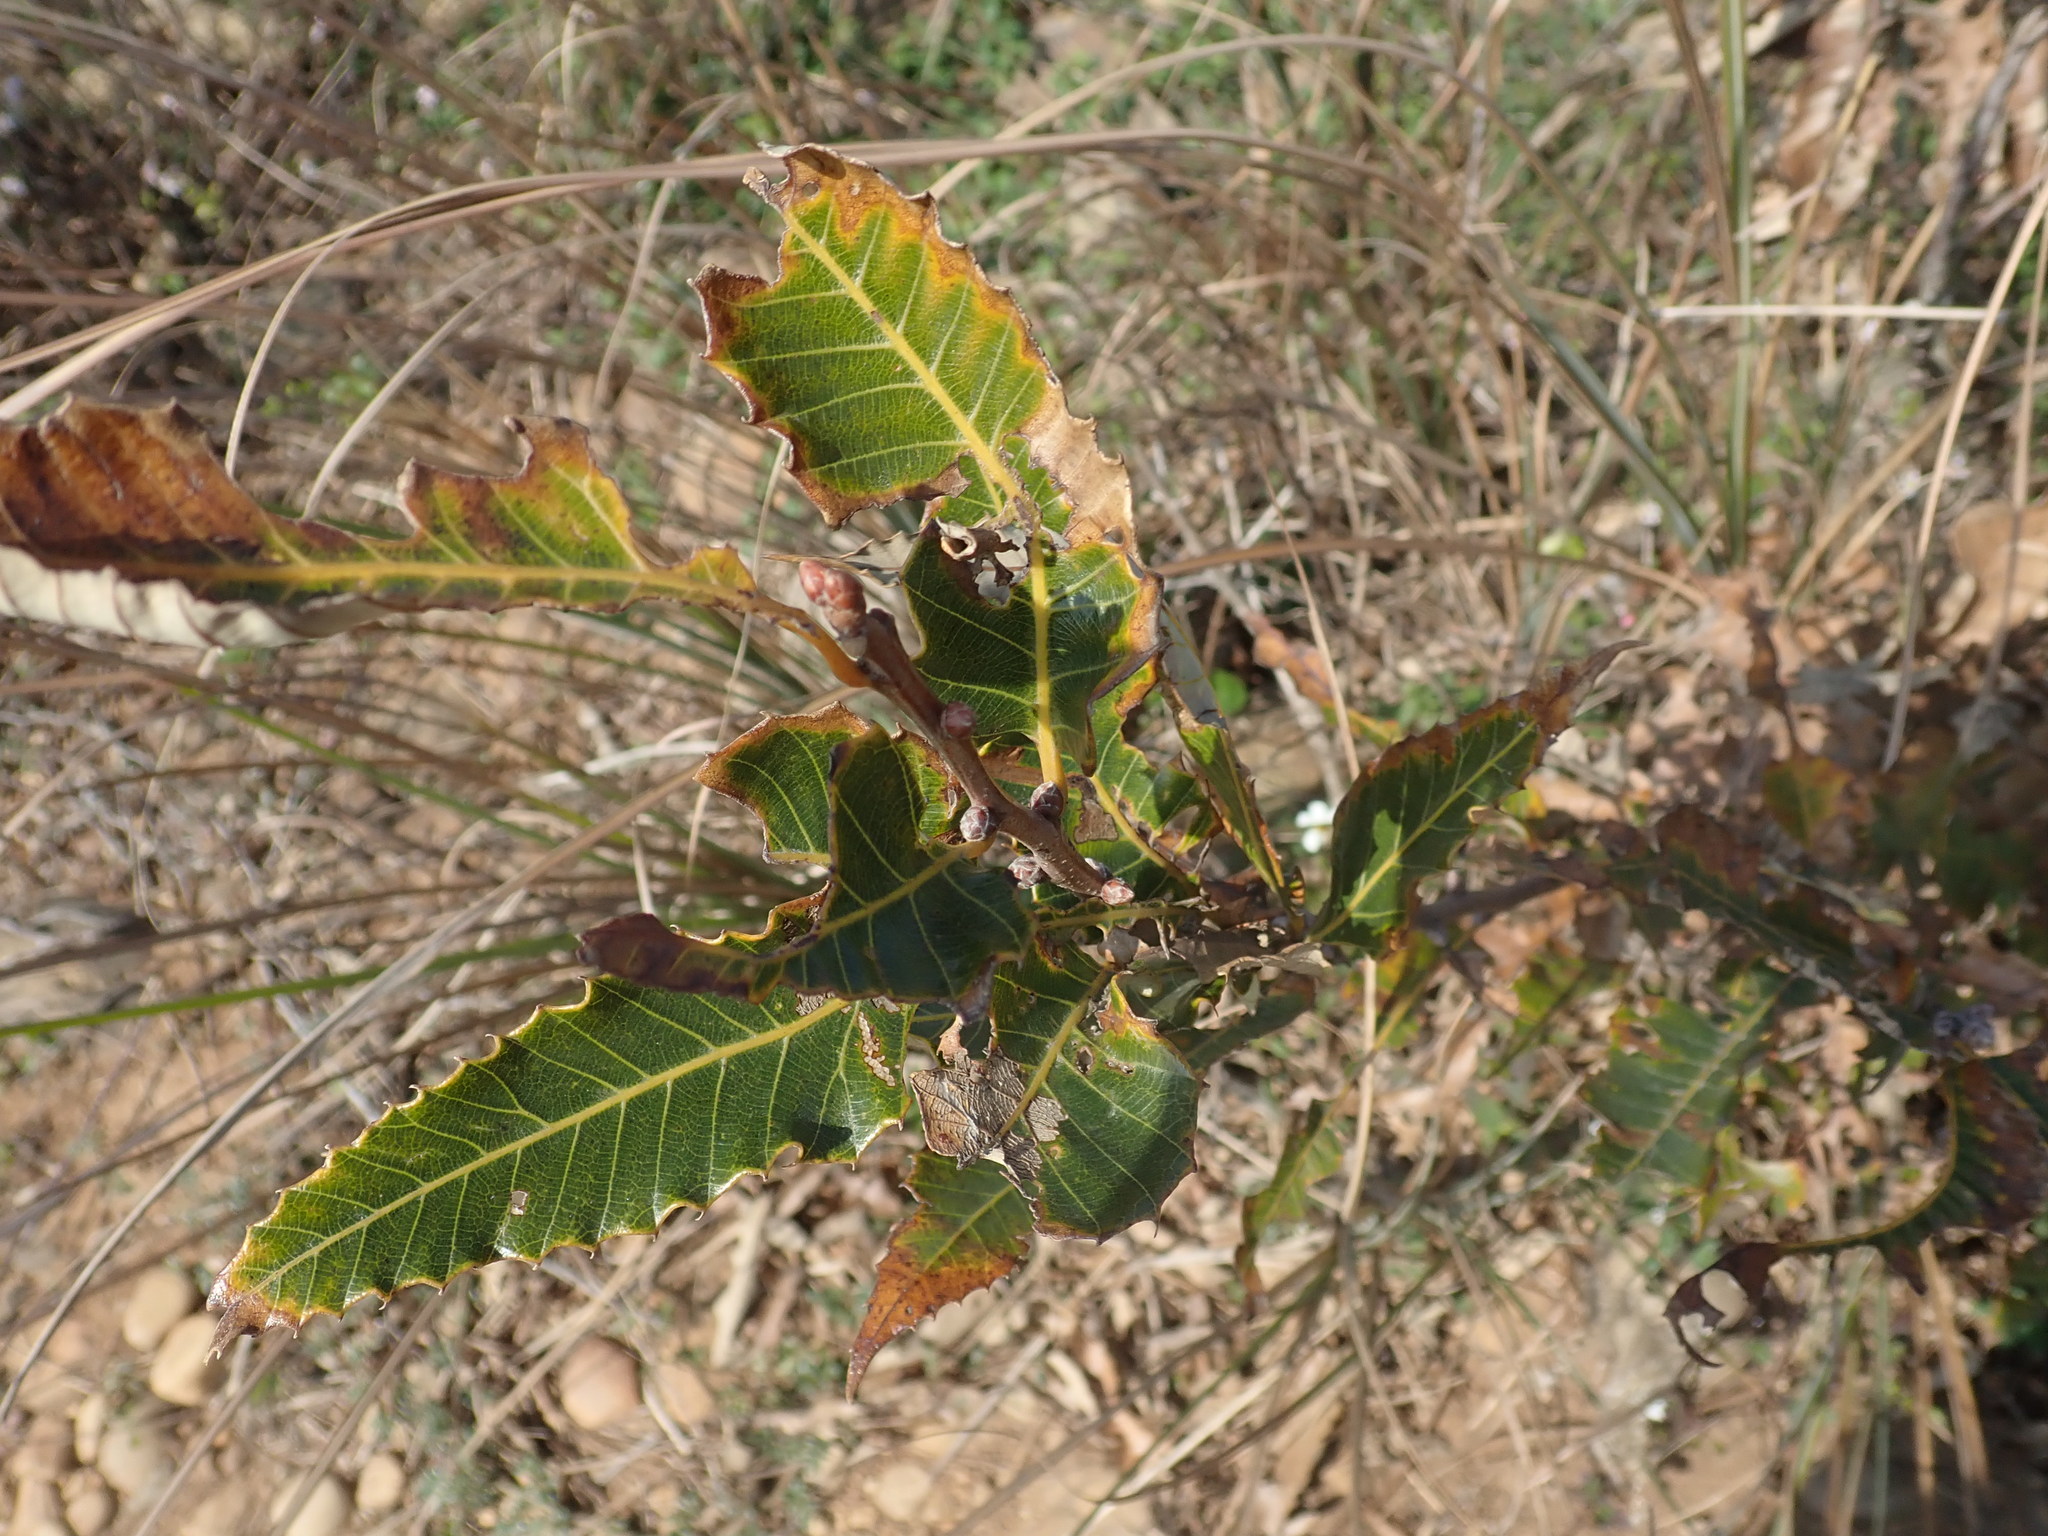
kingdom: Plantae
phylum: Tracheophyta
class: Magnoliopsida
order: Fagales
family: Fagaceae
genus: Quercus
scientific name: Quercus variabilis
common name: Chinese cork oak
